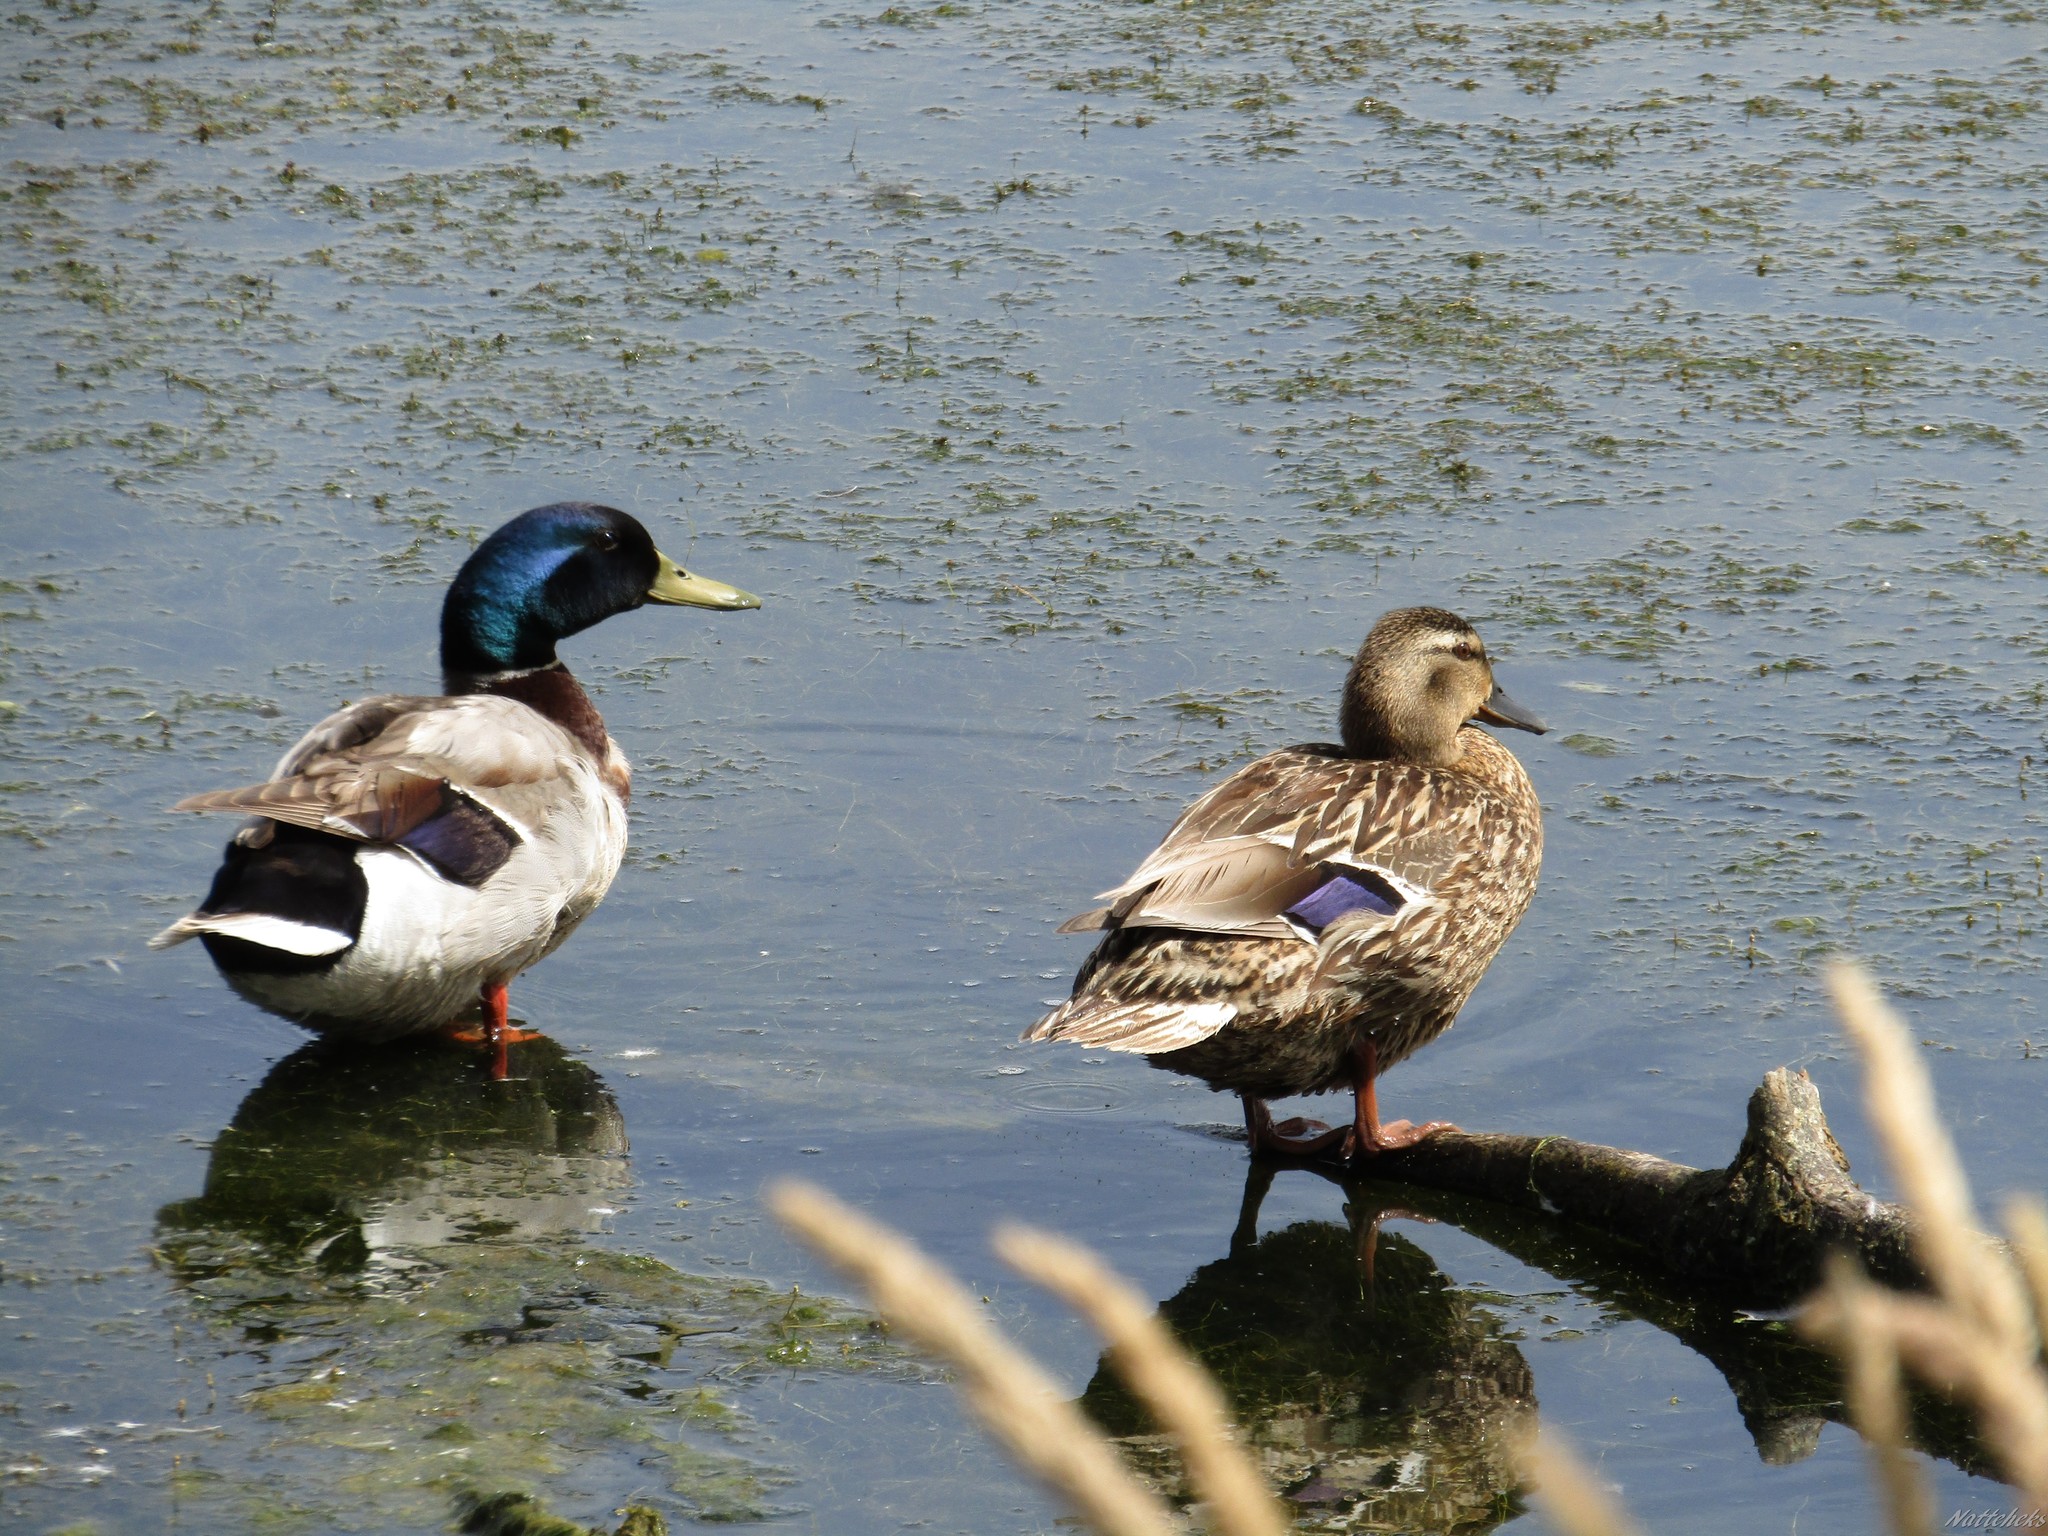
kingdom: Animalia
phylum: Chordata
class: Aves
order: Anseriformes
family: Anatidae
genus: Anas
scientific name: Anas platyrhynchos
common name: Mallard
